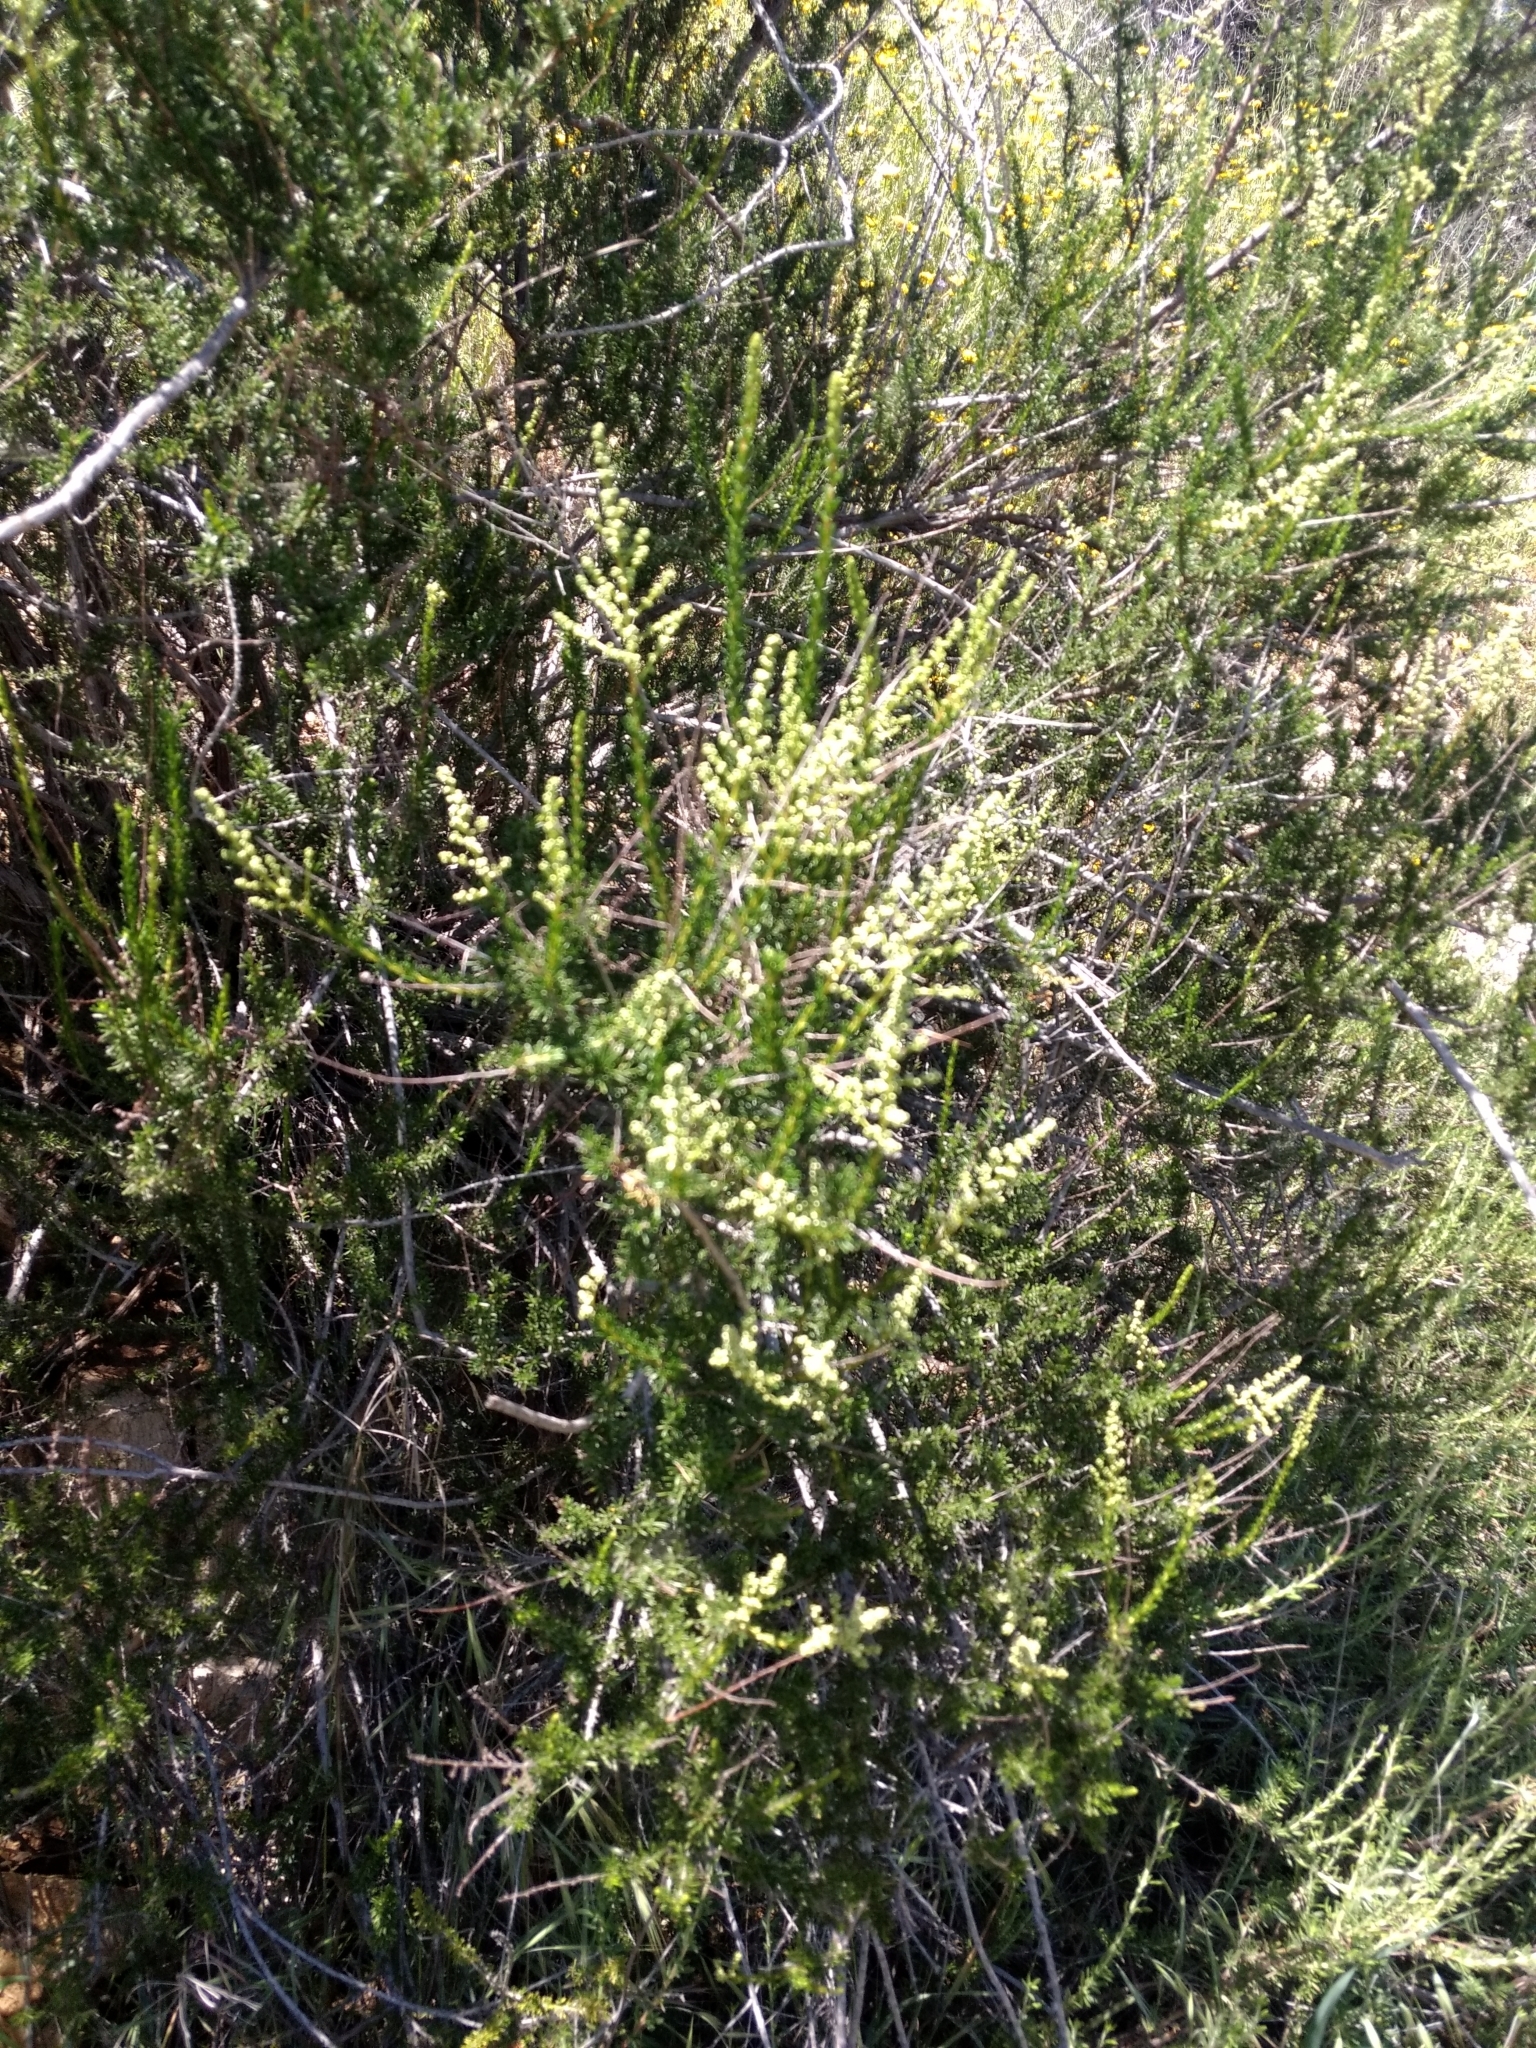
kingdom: Plantae
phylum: Tracheophyta
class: Magnoliopsida
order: Rosales
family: Rosaceae
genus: Adenostoma
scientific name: Adenostoma fasciculatum
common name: Chamise
